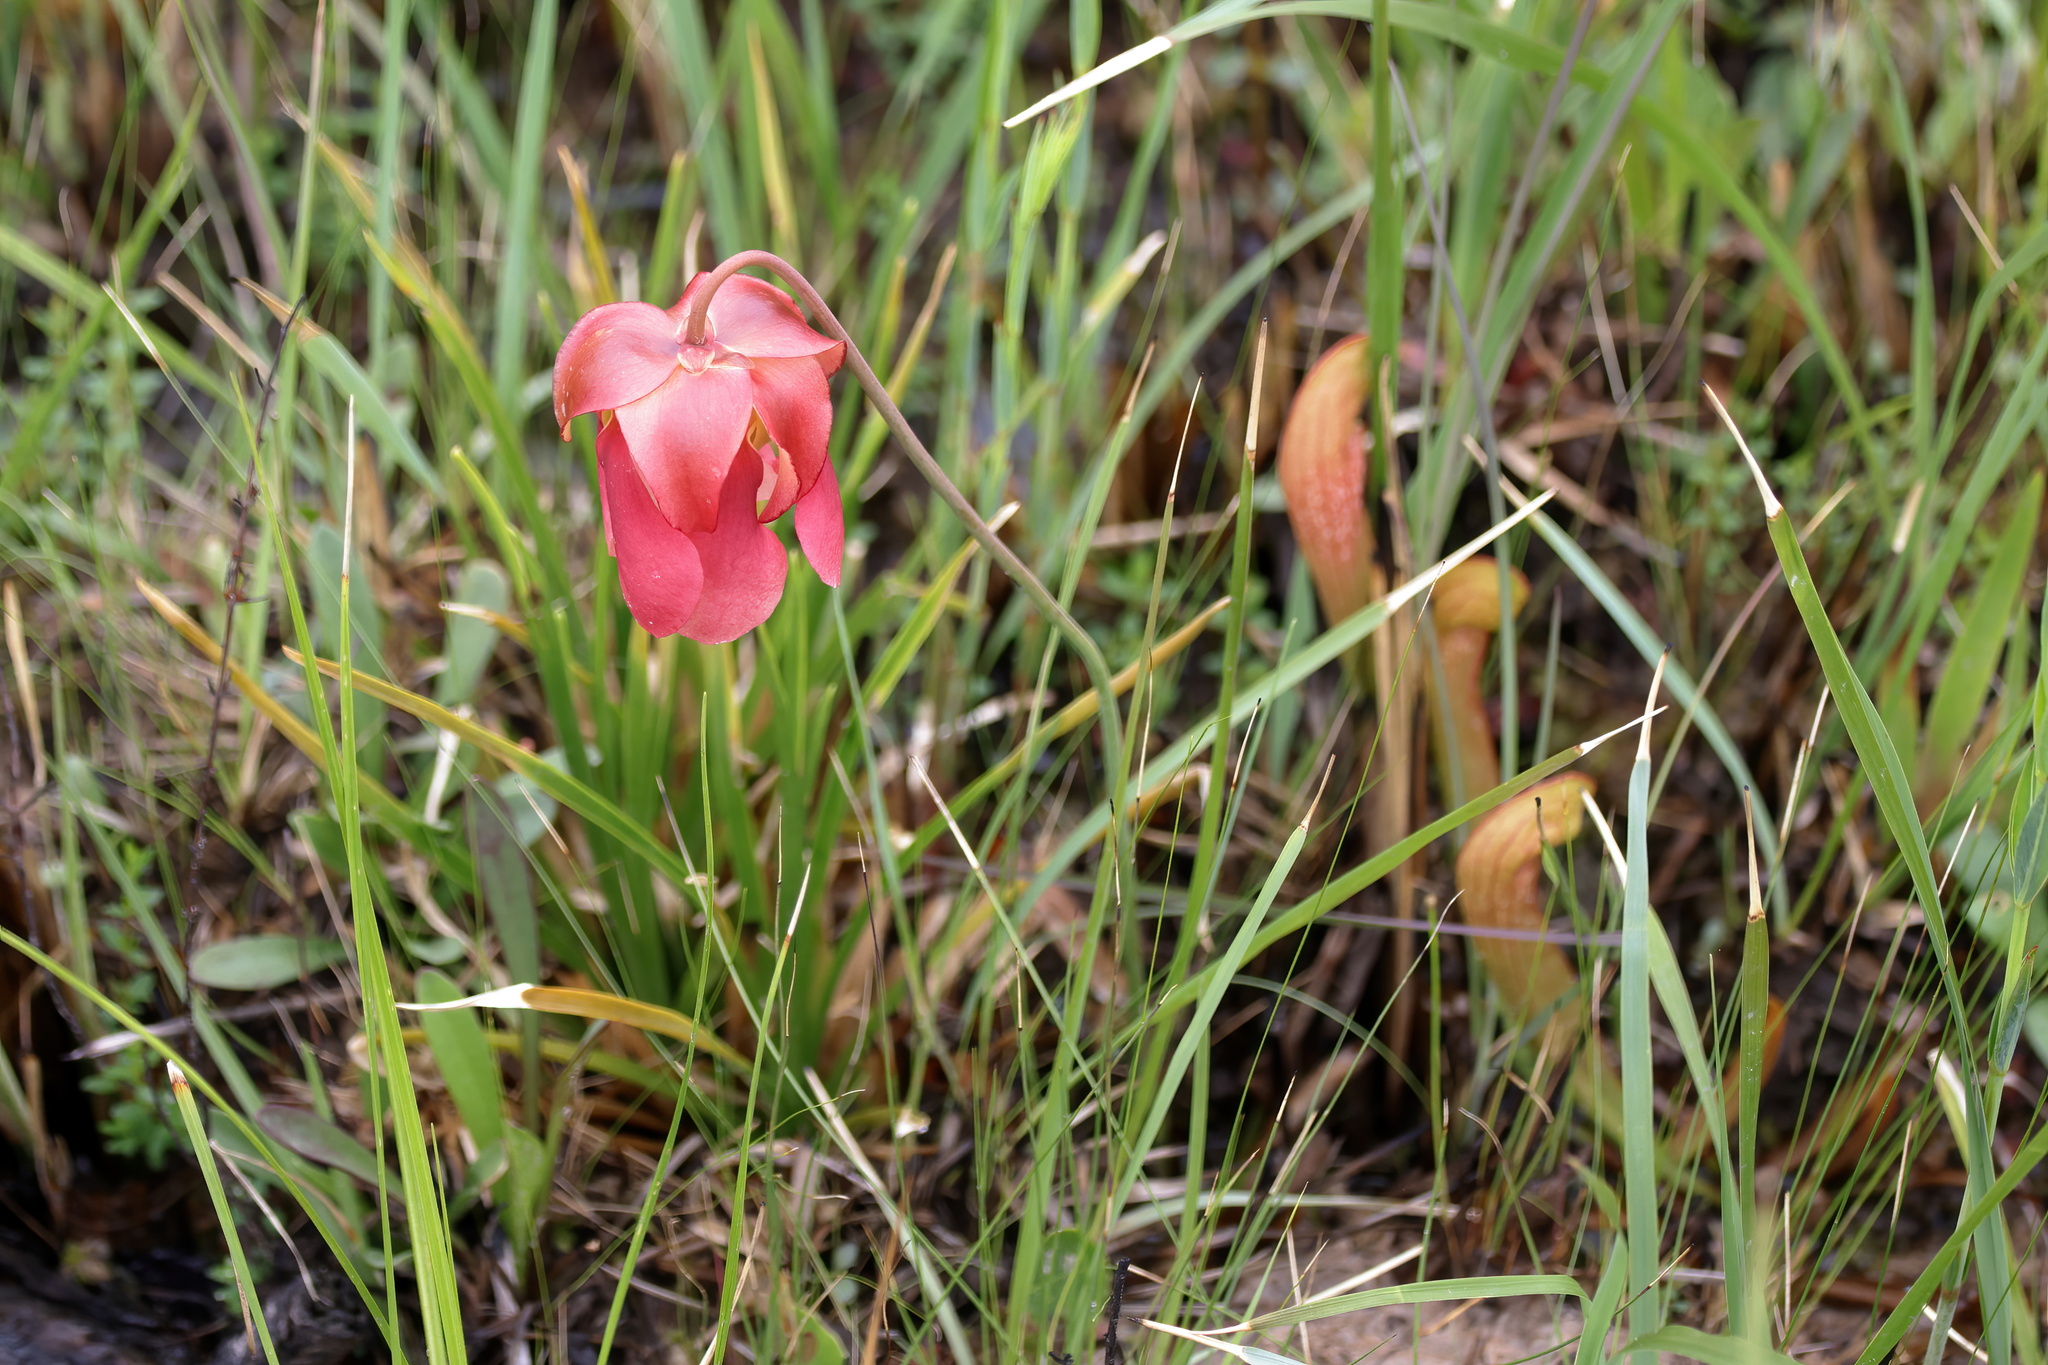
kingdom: Plantae
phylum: Tracheophyta
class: Magnoliopsida
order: Ericales
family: Sarraceniaceae
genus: Sarracenia
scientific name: Sarracenia psittacina
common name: Parrot pitcherplant
